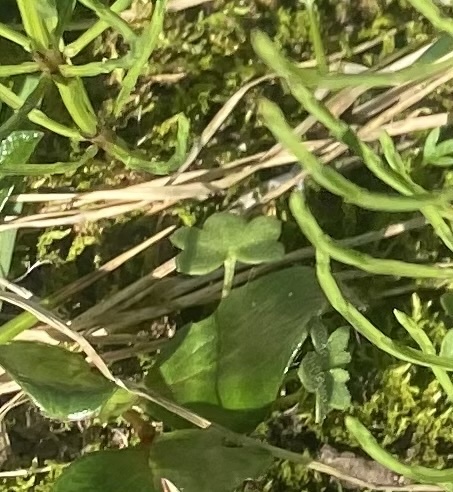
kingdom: Plantae
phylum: Tracheophyta
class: Magnoliopsida
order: Saxifragales
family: Saxifragaceae
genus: Saxifraga
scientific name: Saxifraga cernua
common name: Drooping saxifrage
